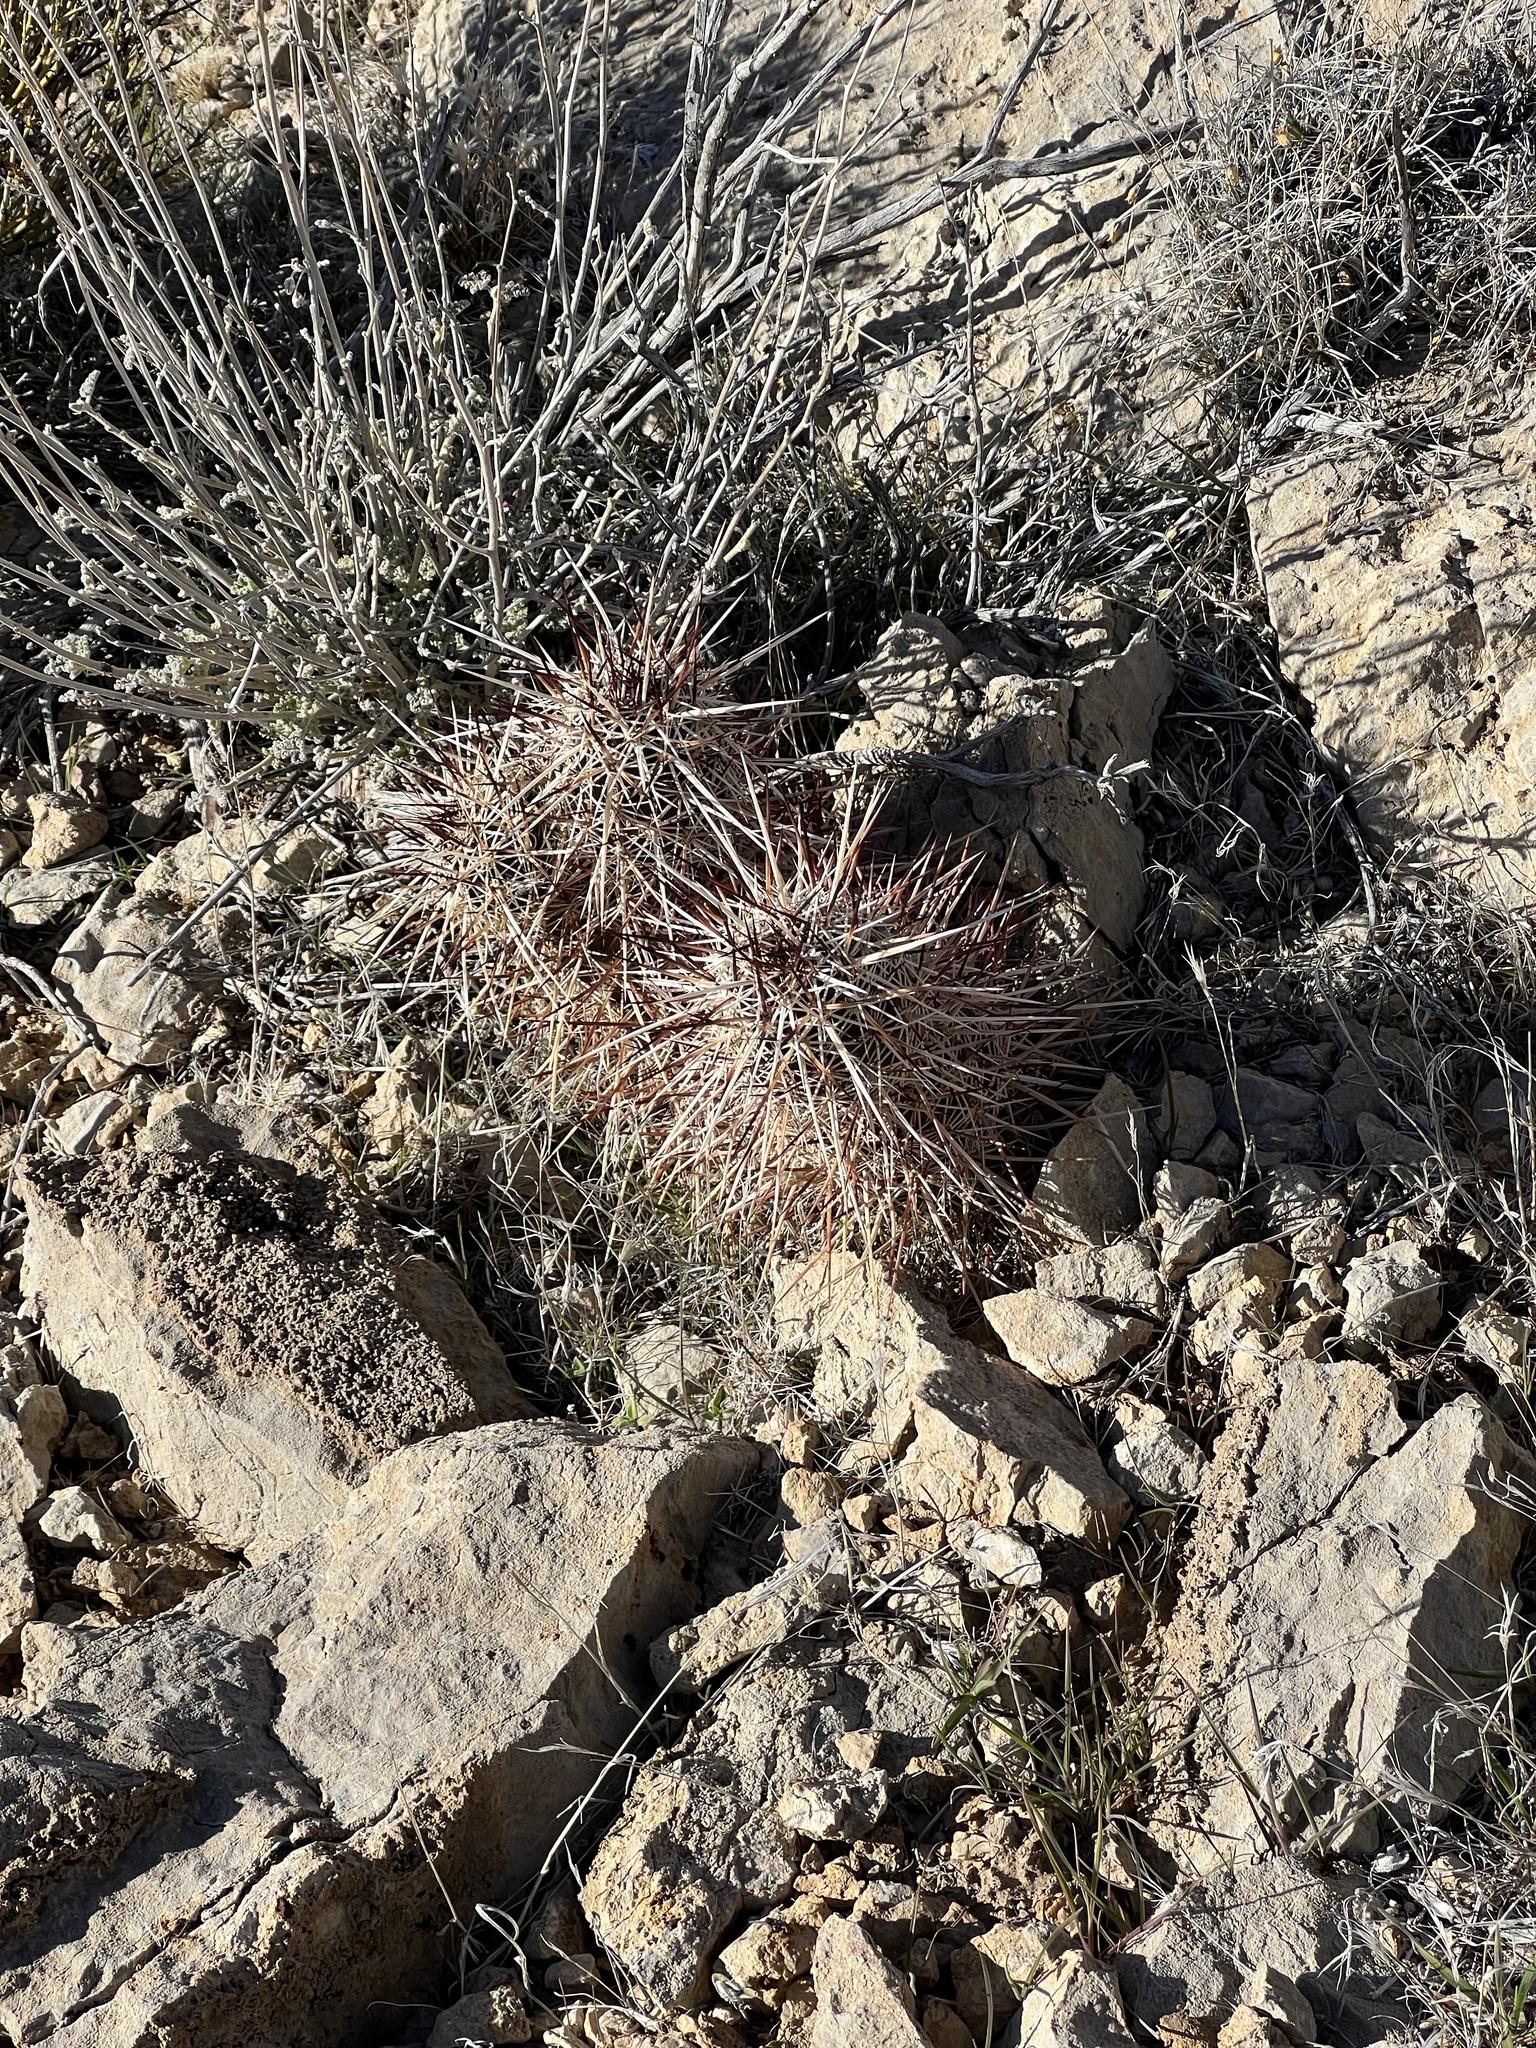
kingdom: Plantae
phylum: Tracheophyta
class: Magnoliopsida
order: Caryophyllales
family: Cactaceae
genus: Echinocereus
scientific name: Echinocereus engelmannii
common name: Engelmann's hedgehog cactus
